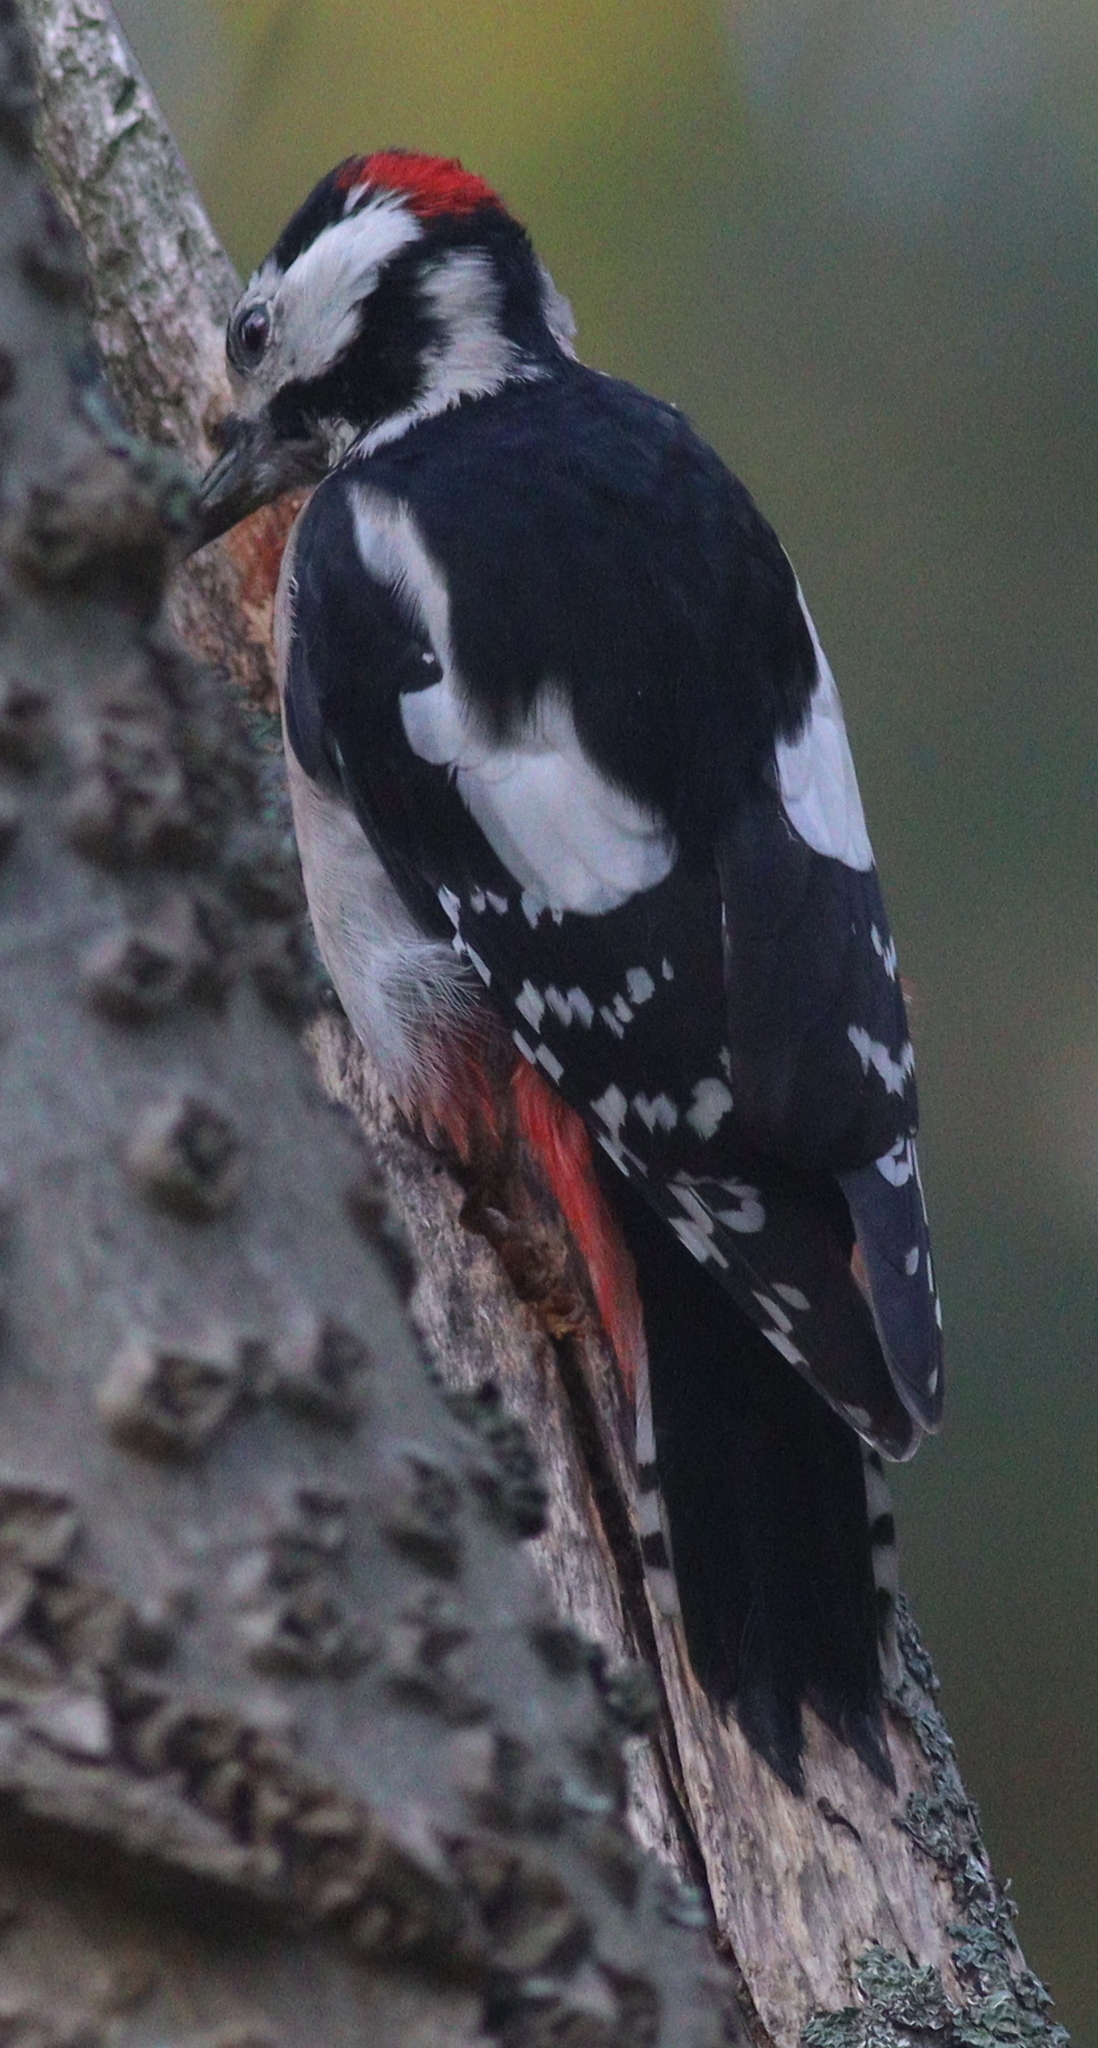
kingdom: Animalia
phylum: Chordata
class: Aves
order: Piciformes
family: Picidae
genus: Dendrocopos
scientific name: Dendrocopos major
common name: Great spotted woodpecker
